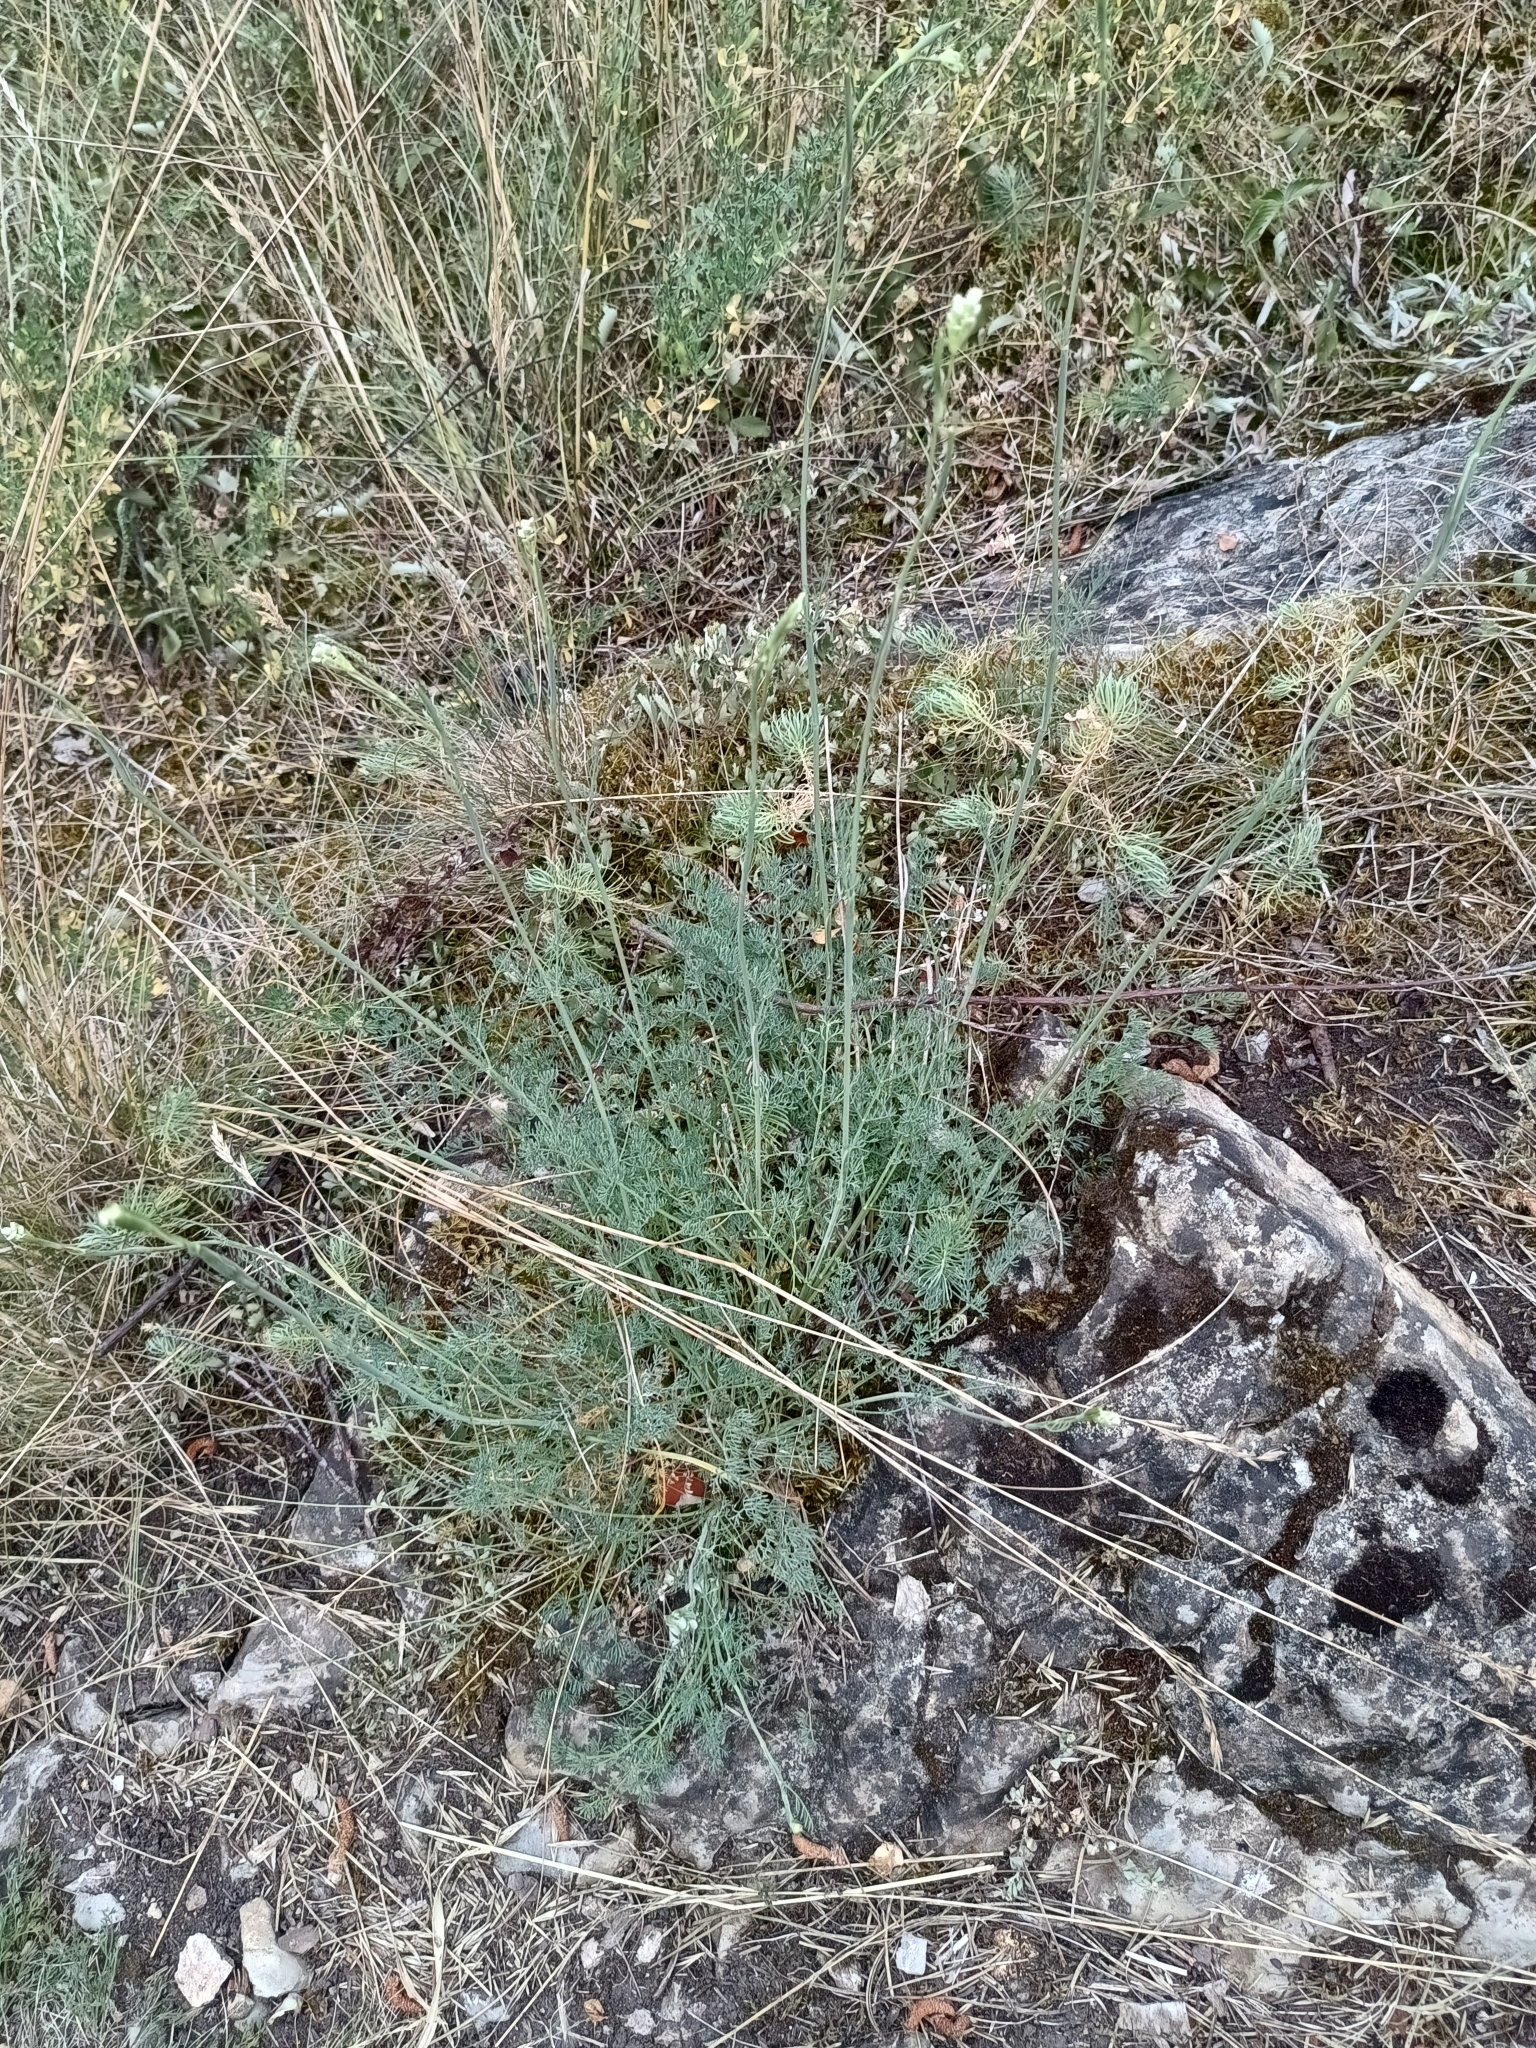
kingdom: Plantae
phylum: Tracheophyta
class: Magnoliopsida
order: Apiales
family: Apiaceae
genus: Hippomarathrum
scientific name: Hippomarathrum
